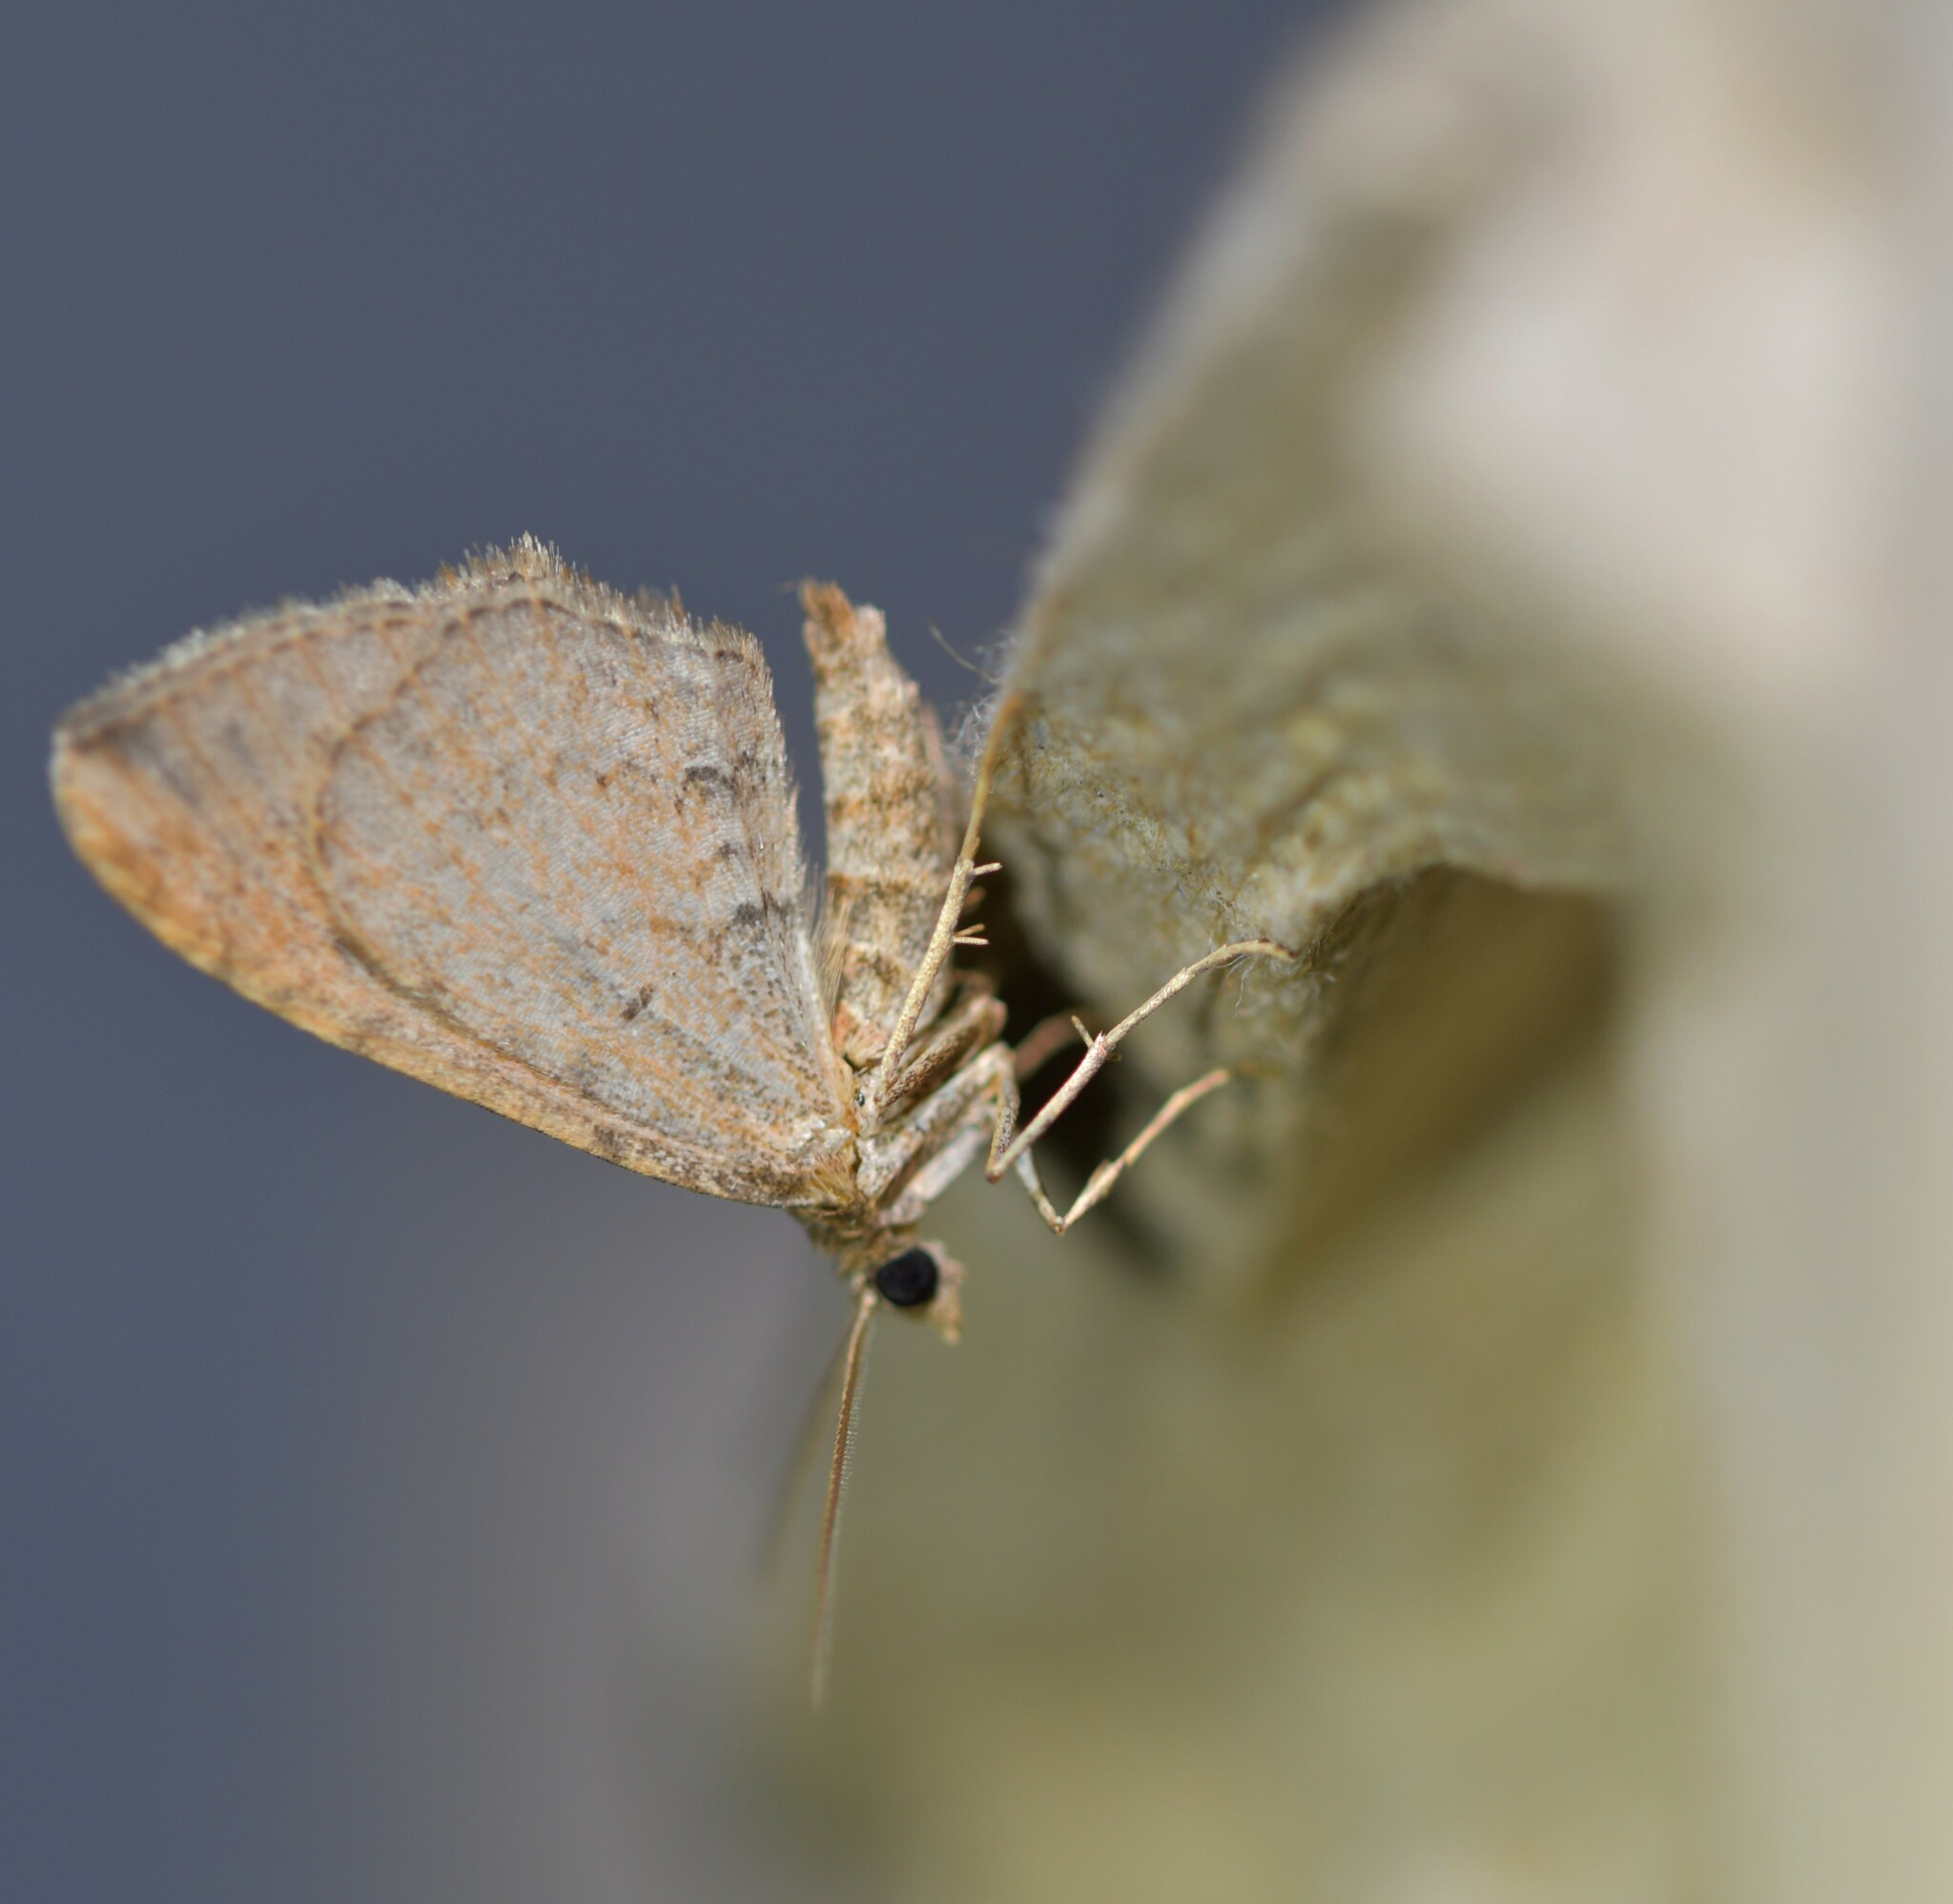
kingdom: Animalia
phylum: Arthropoda
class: Insecta
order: Lepidoptera
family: Geometridae
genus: Orthonama
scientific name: Orthonama obstipata
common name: The gem
